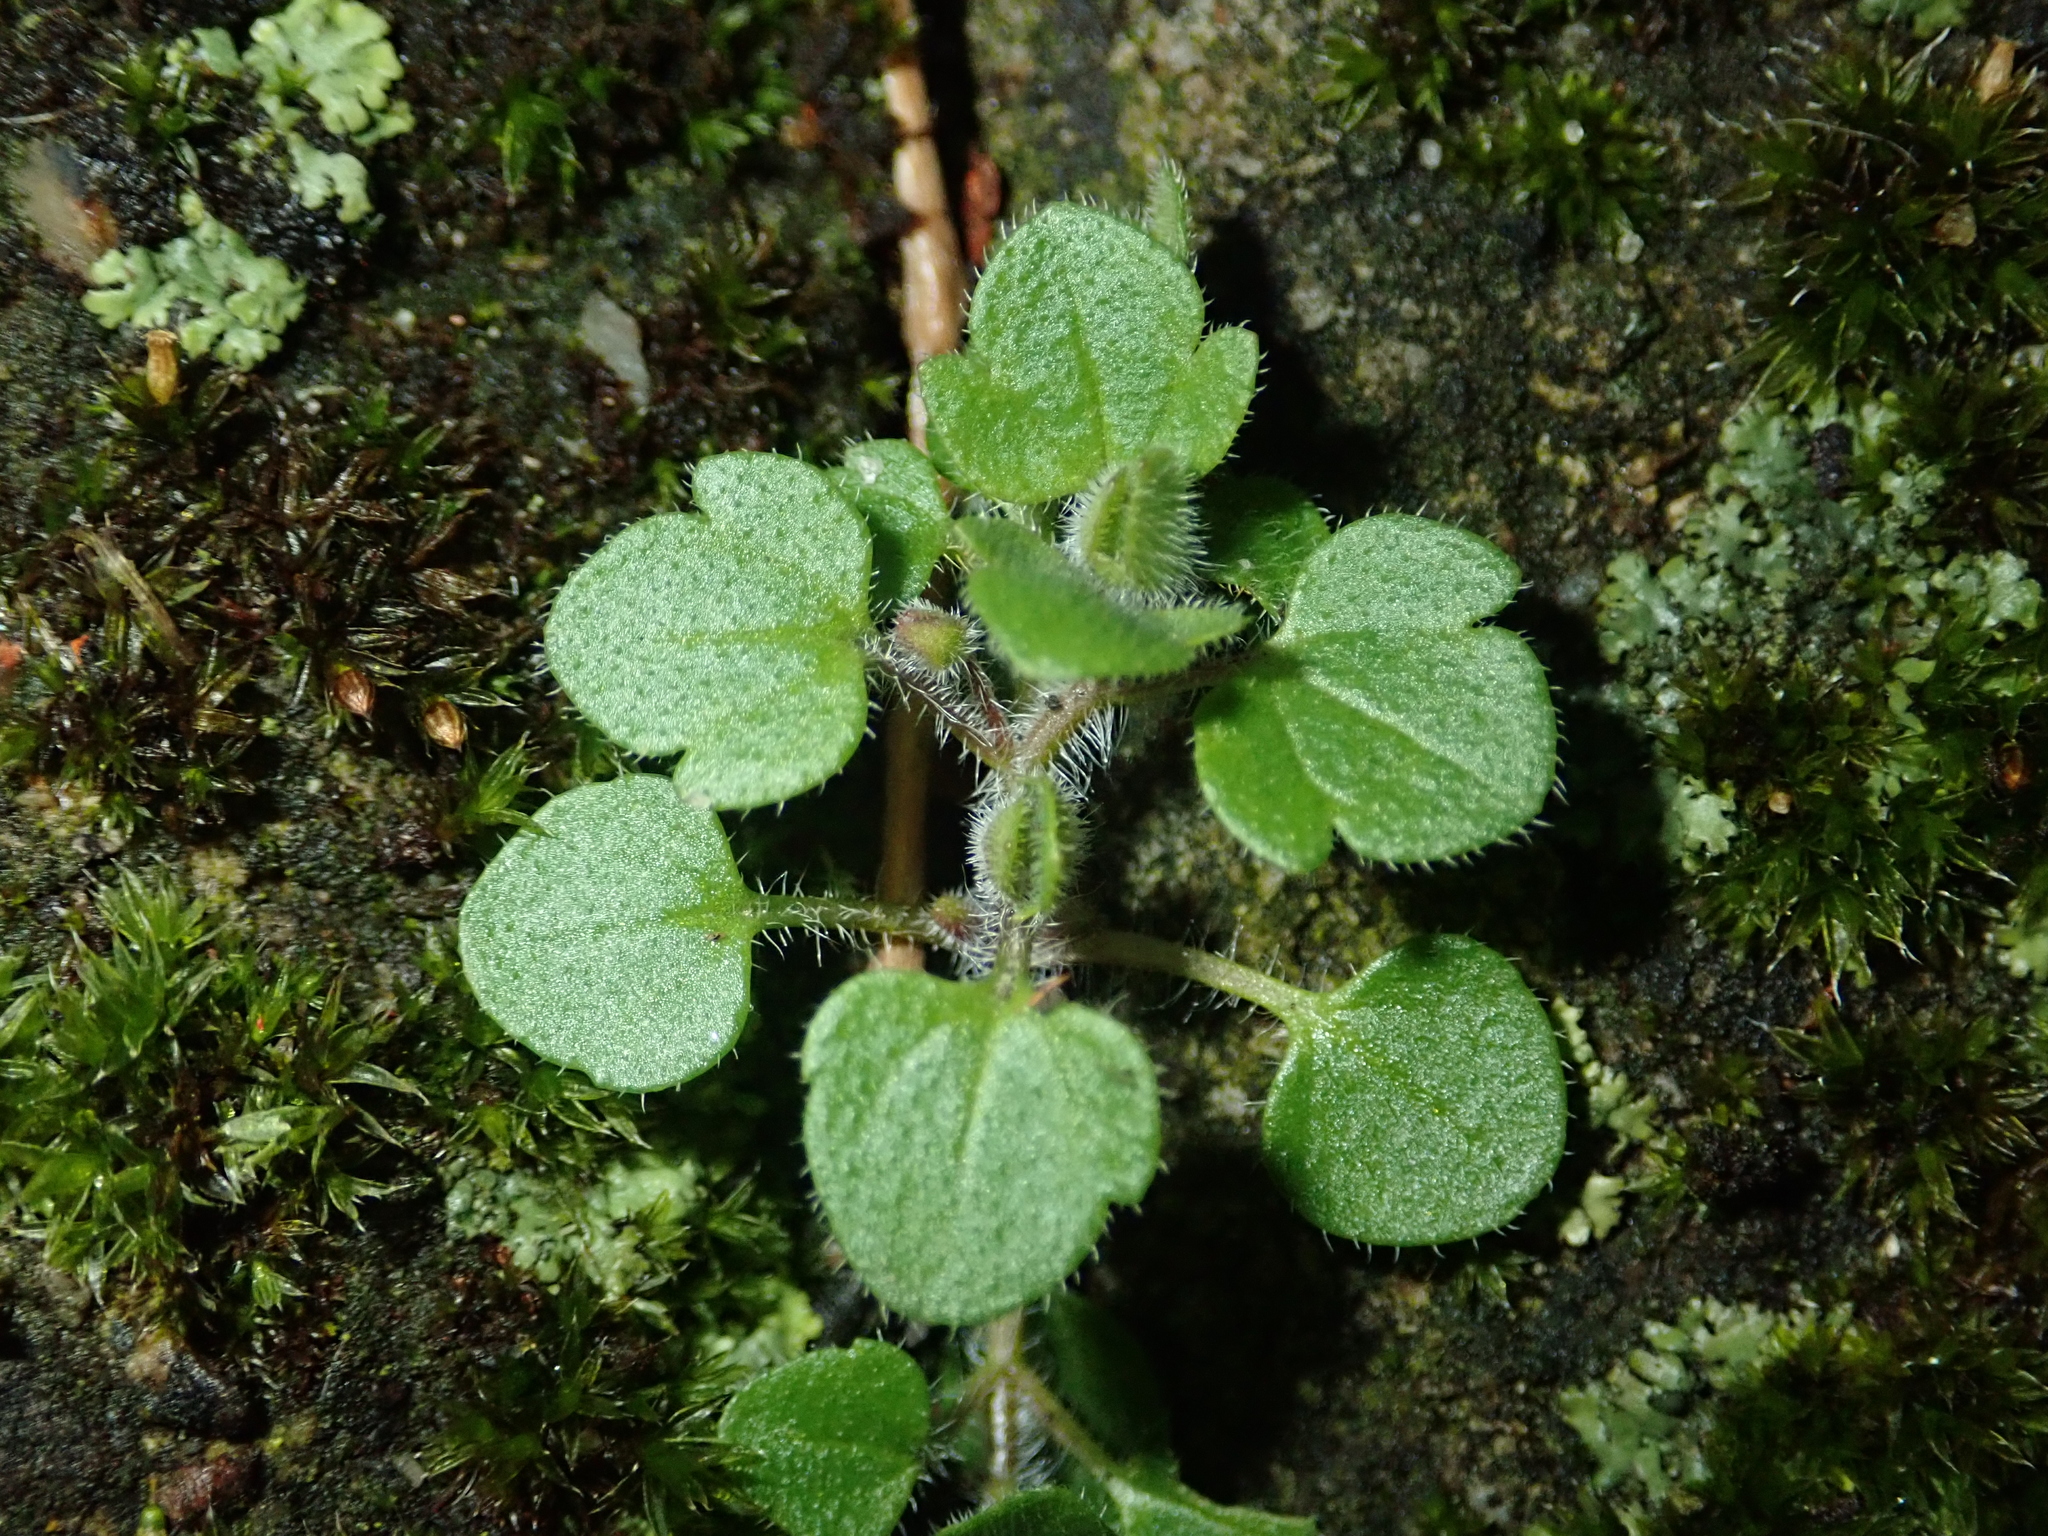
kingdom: Plantae
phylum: Tracheophyta
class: Magnoliopsida
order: Lamiales
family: Plantaginaceae
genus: Veronica
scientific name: Veronica hederifolia
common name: Ivy-leaved speedwell
